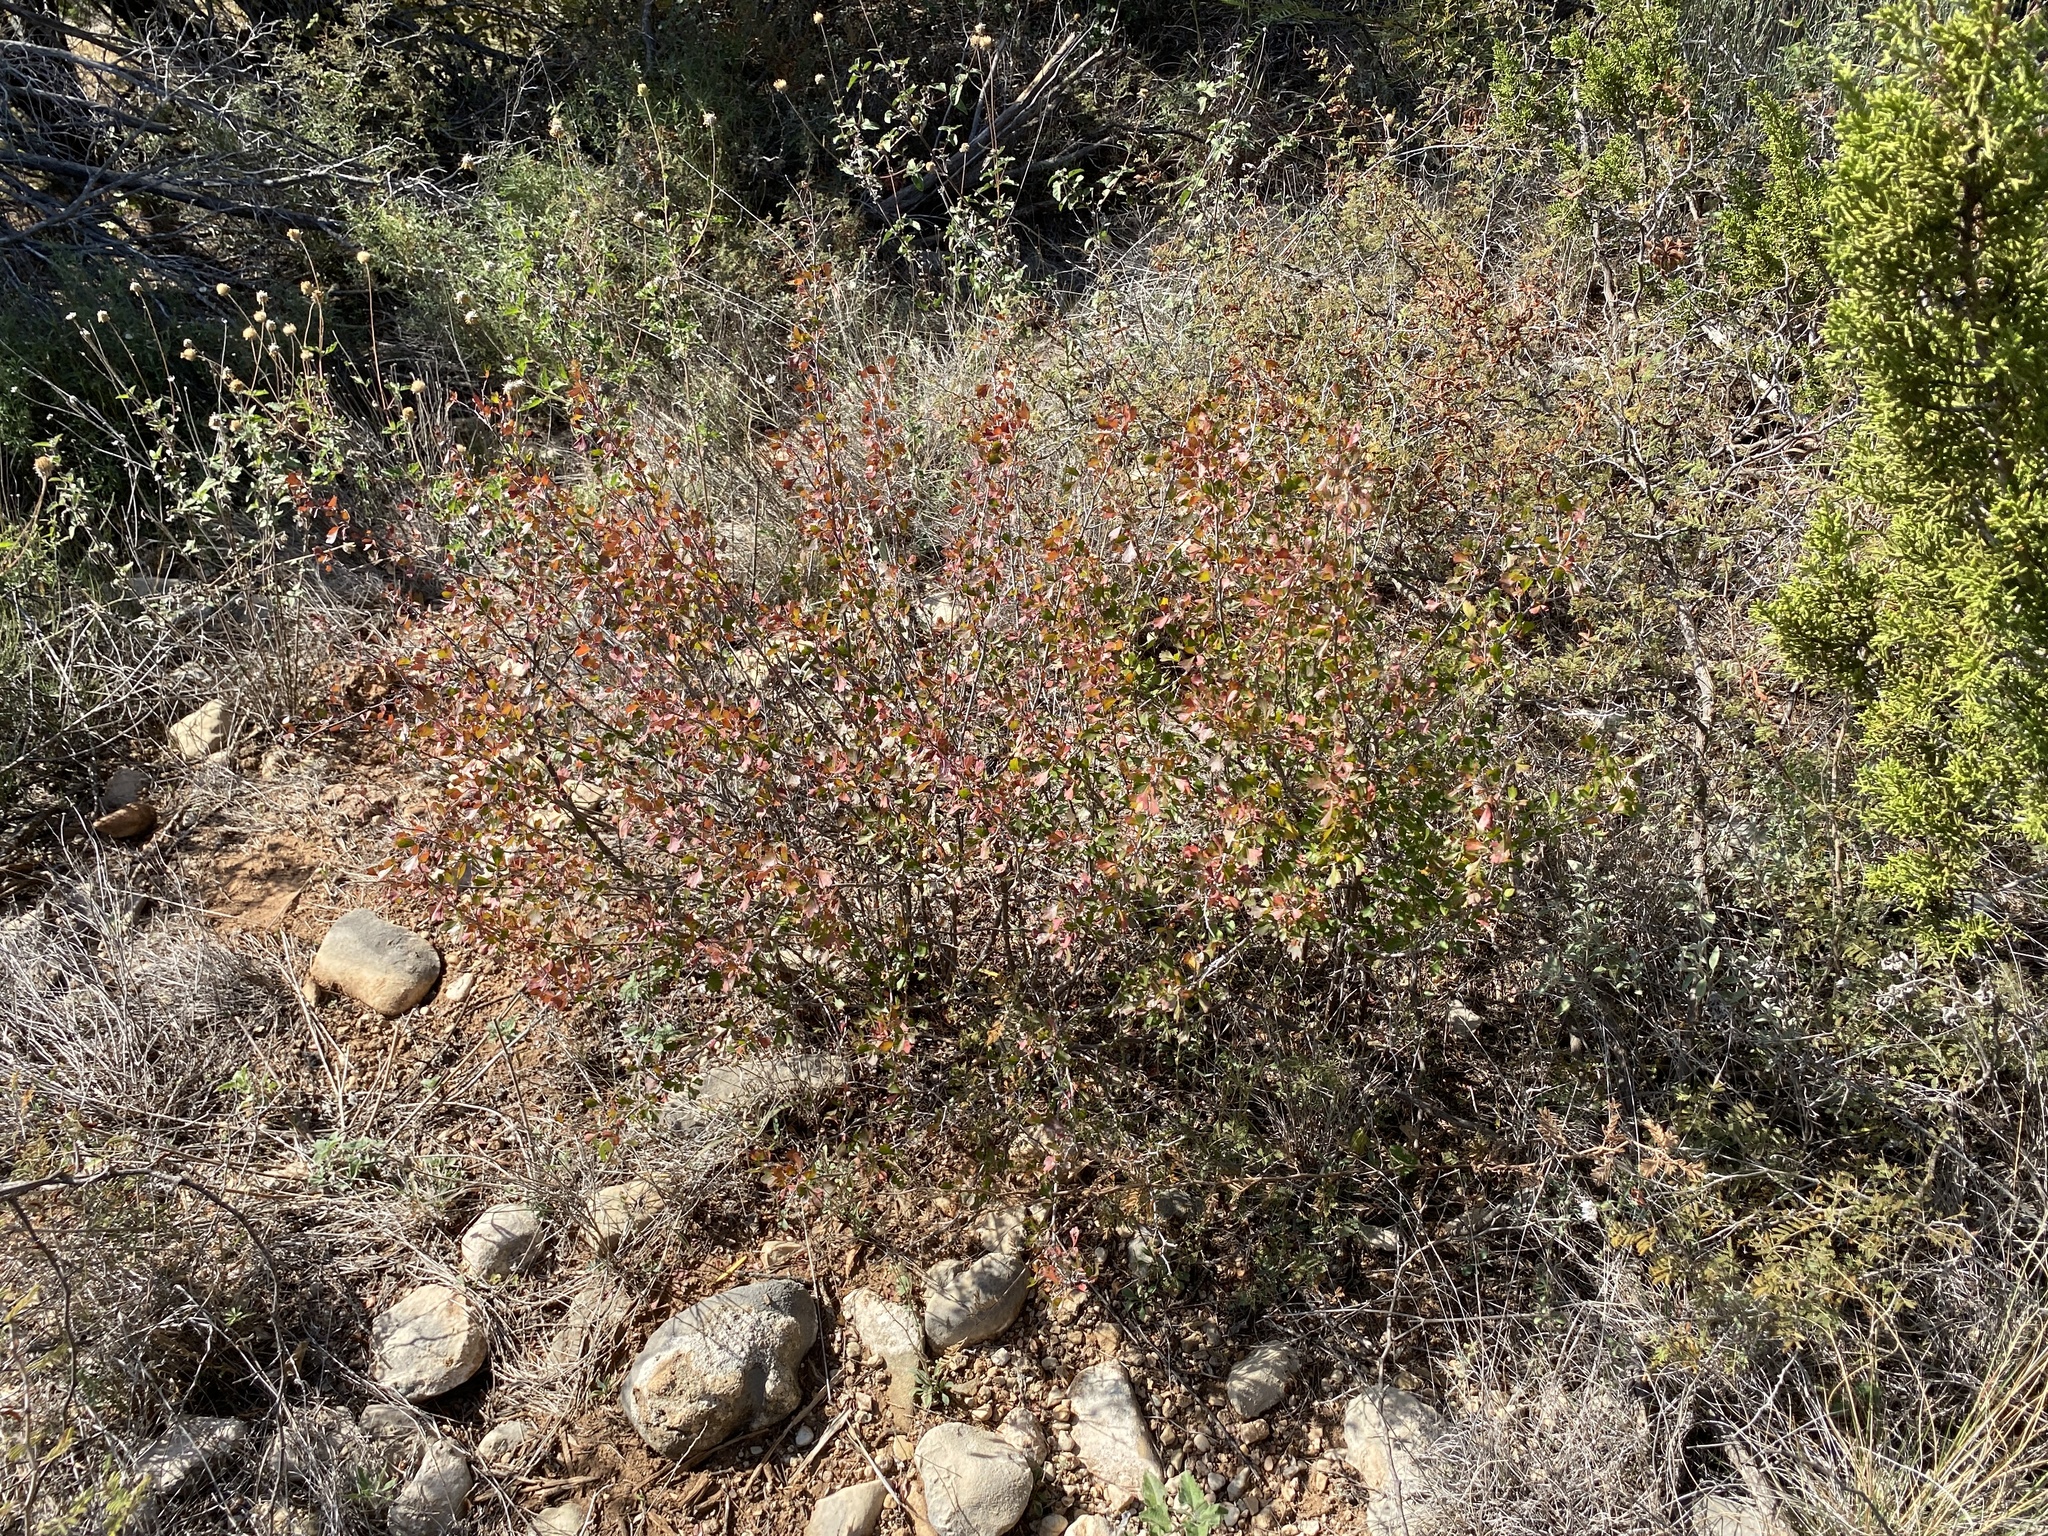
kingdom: Plantae
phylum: Tracheophyta
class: Magnoliopsida
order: Sapindales
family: Anacardiaceae
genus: Rhus
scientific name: Rhus aromatica
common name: Aromatic sumac
